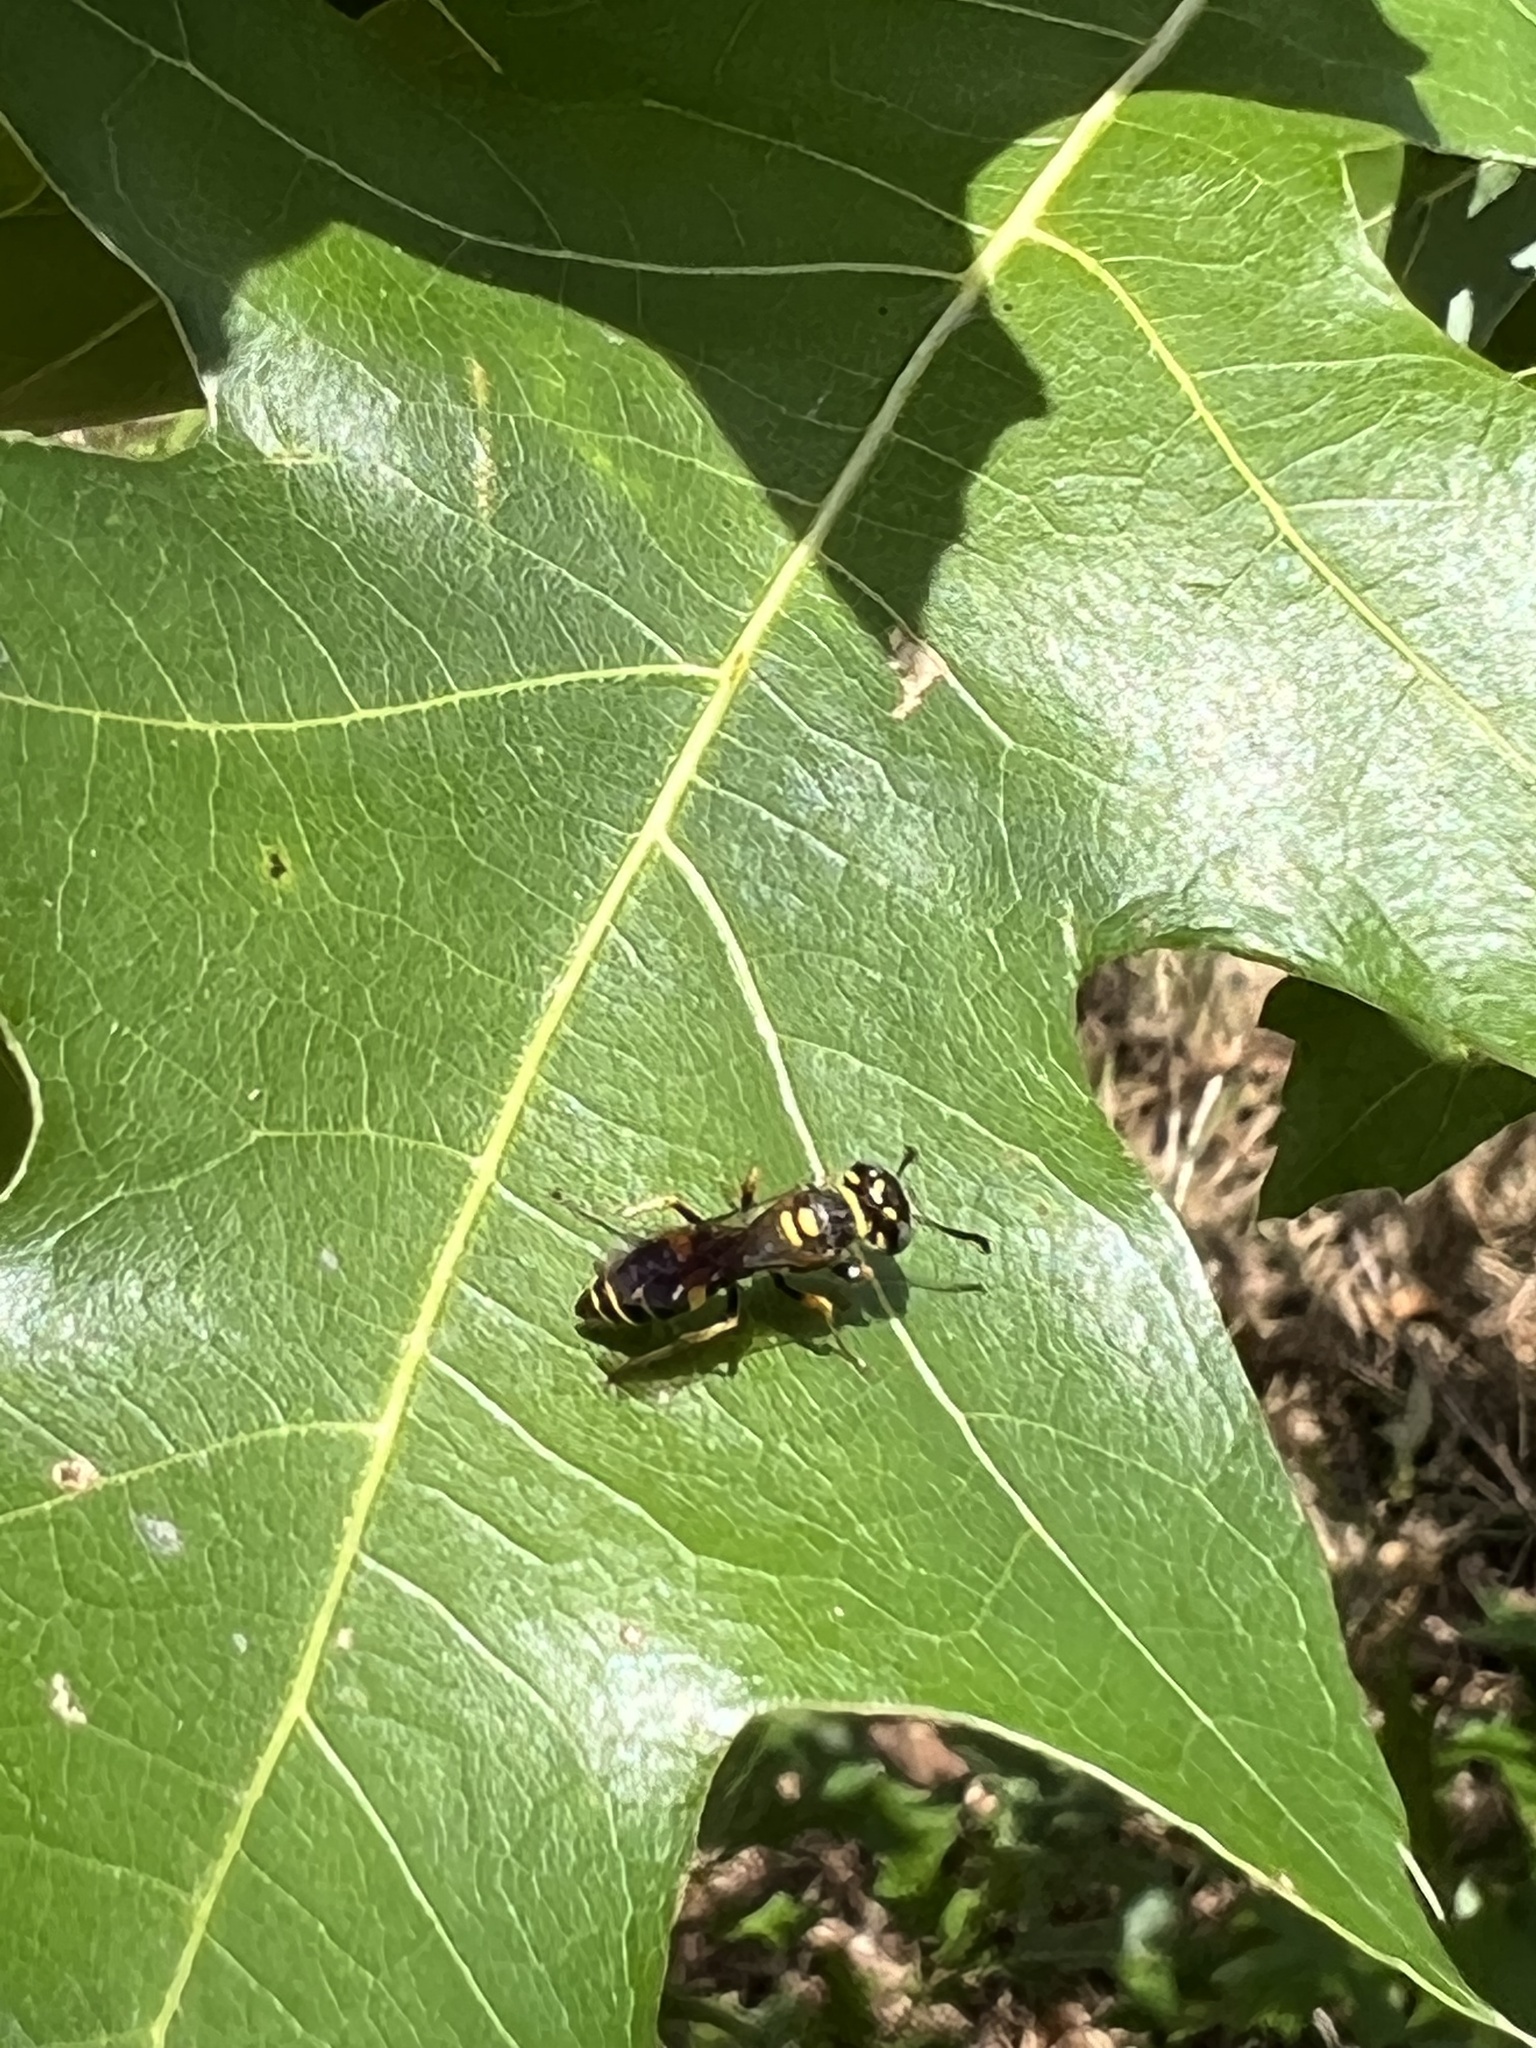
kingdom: Animalia
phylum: Arthropoda
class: Insecta
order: Hymenoptera
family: Crabronidae
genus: Philanthus
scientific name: Philanthus gibbosus
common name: Humped beewolf
